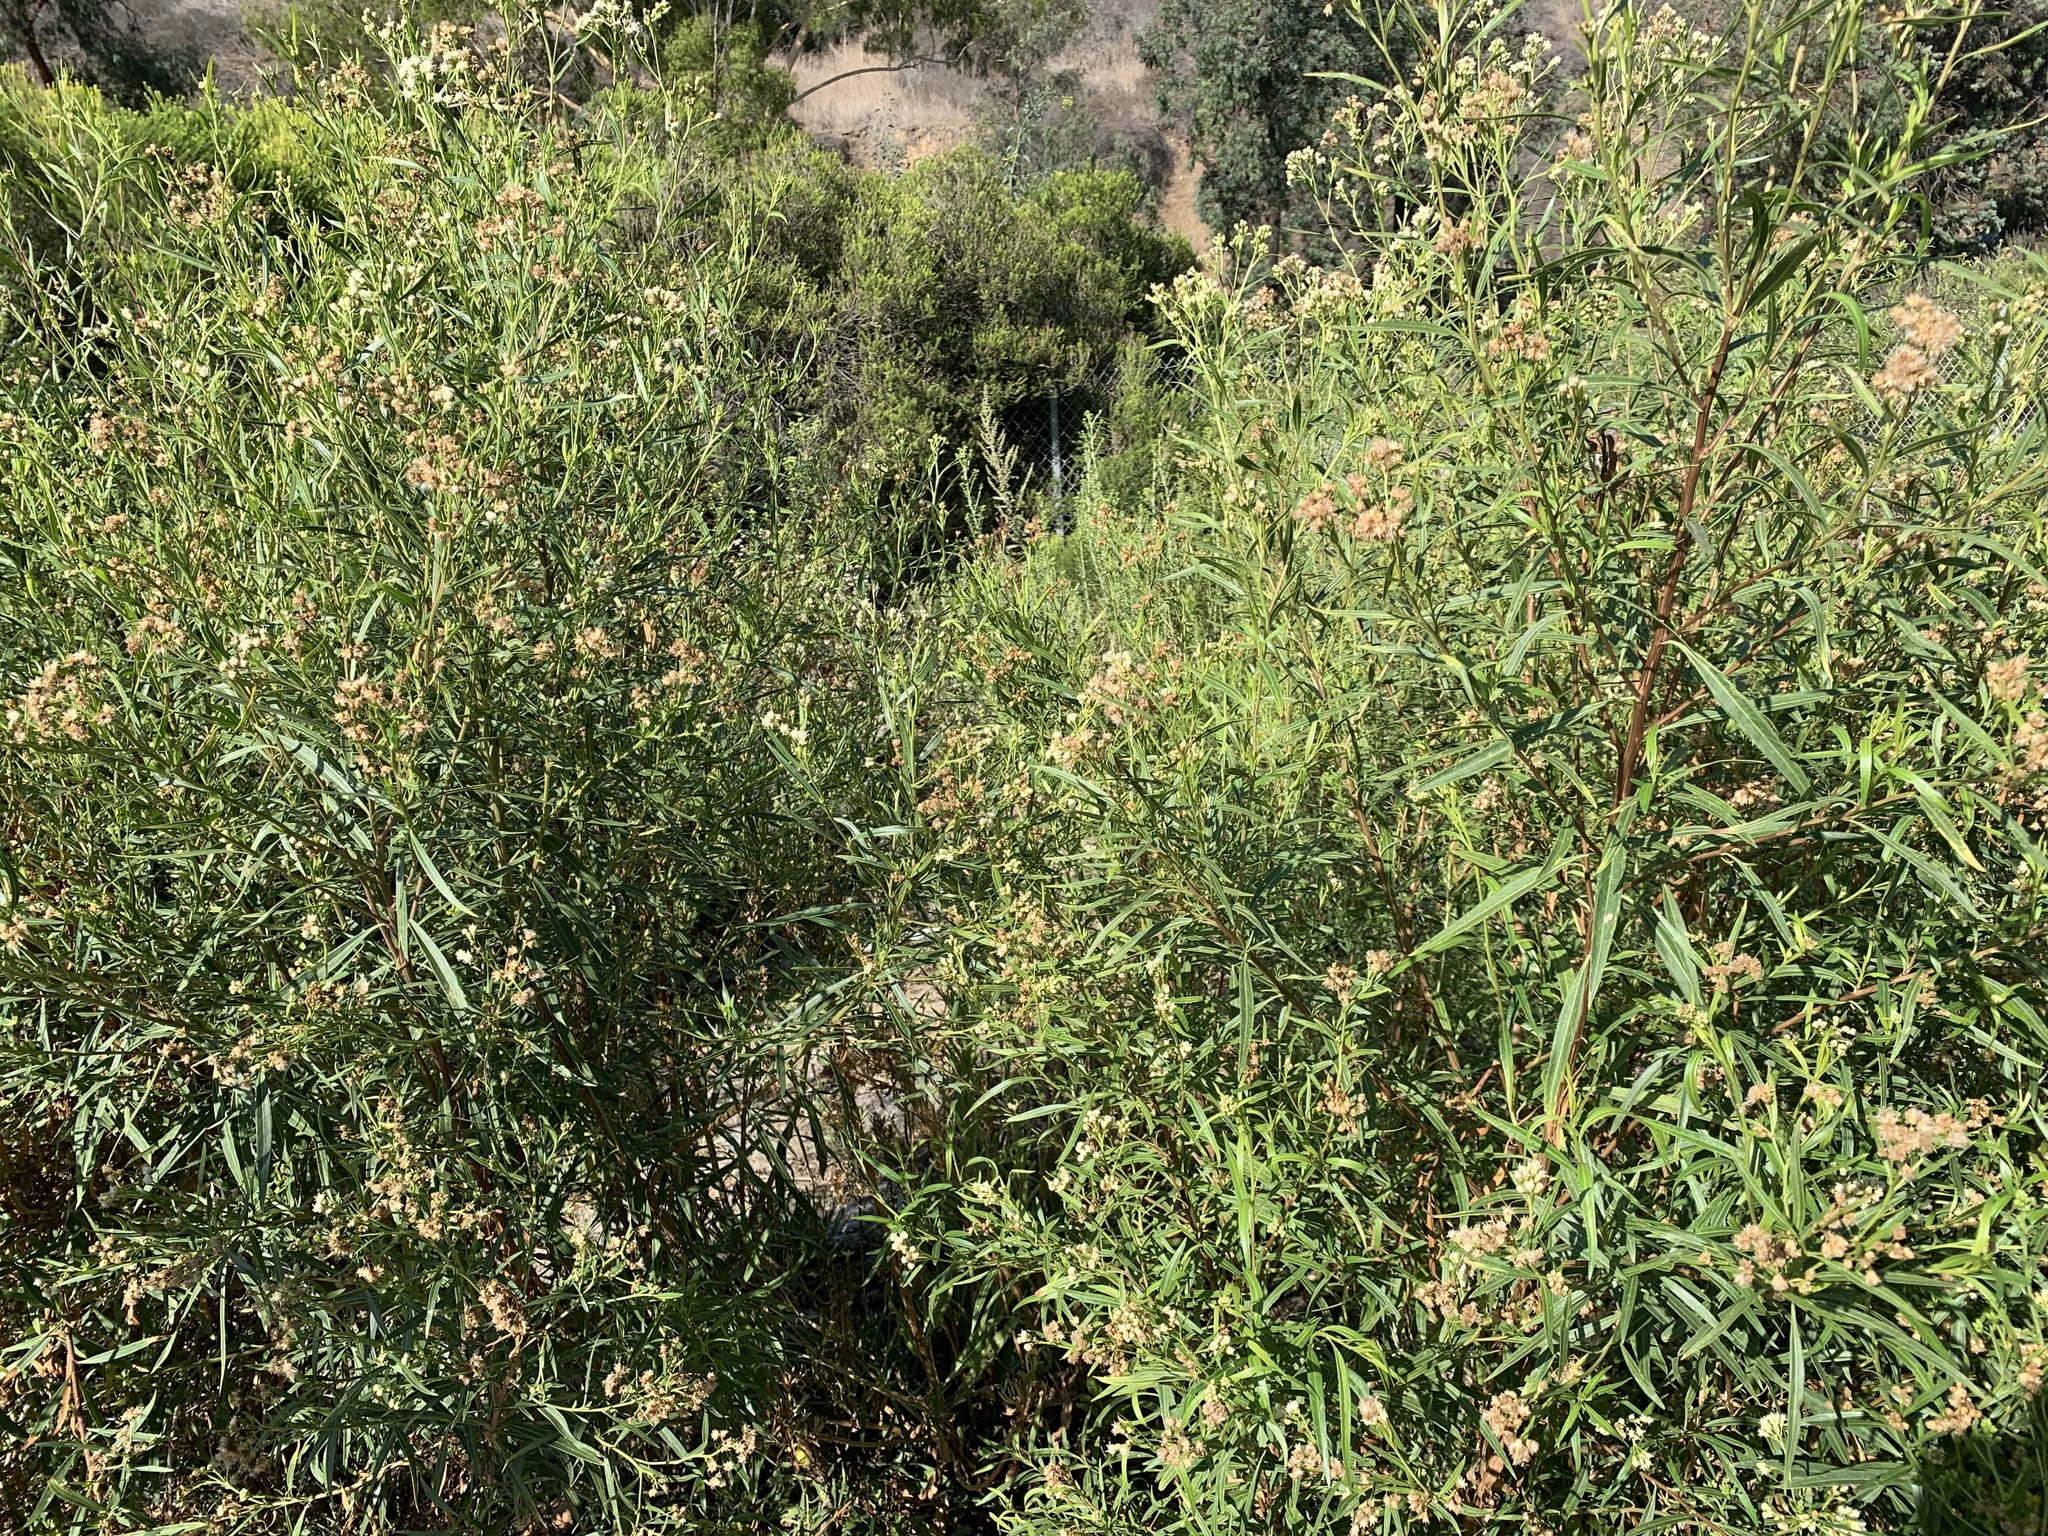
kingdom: Plantae
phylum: Tracheophyta
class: Magnoliopsida
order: Asterales
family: Asteraceae
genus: Baccharis
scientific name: Baccharis salicifolia
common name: Sticky baccharis
